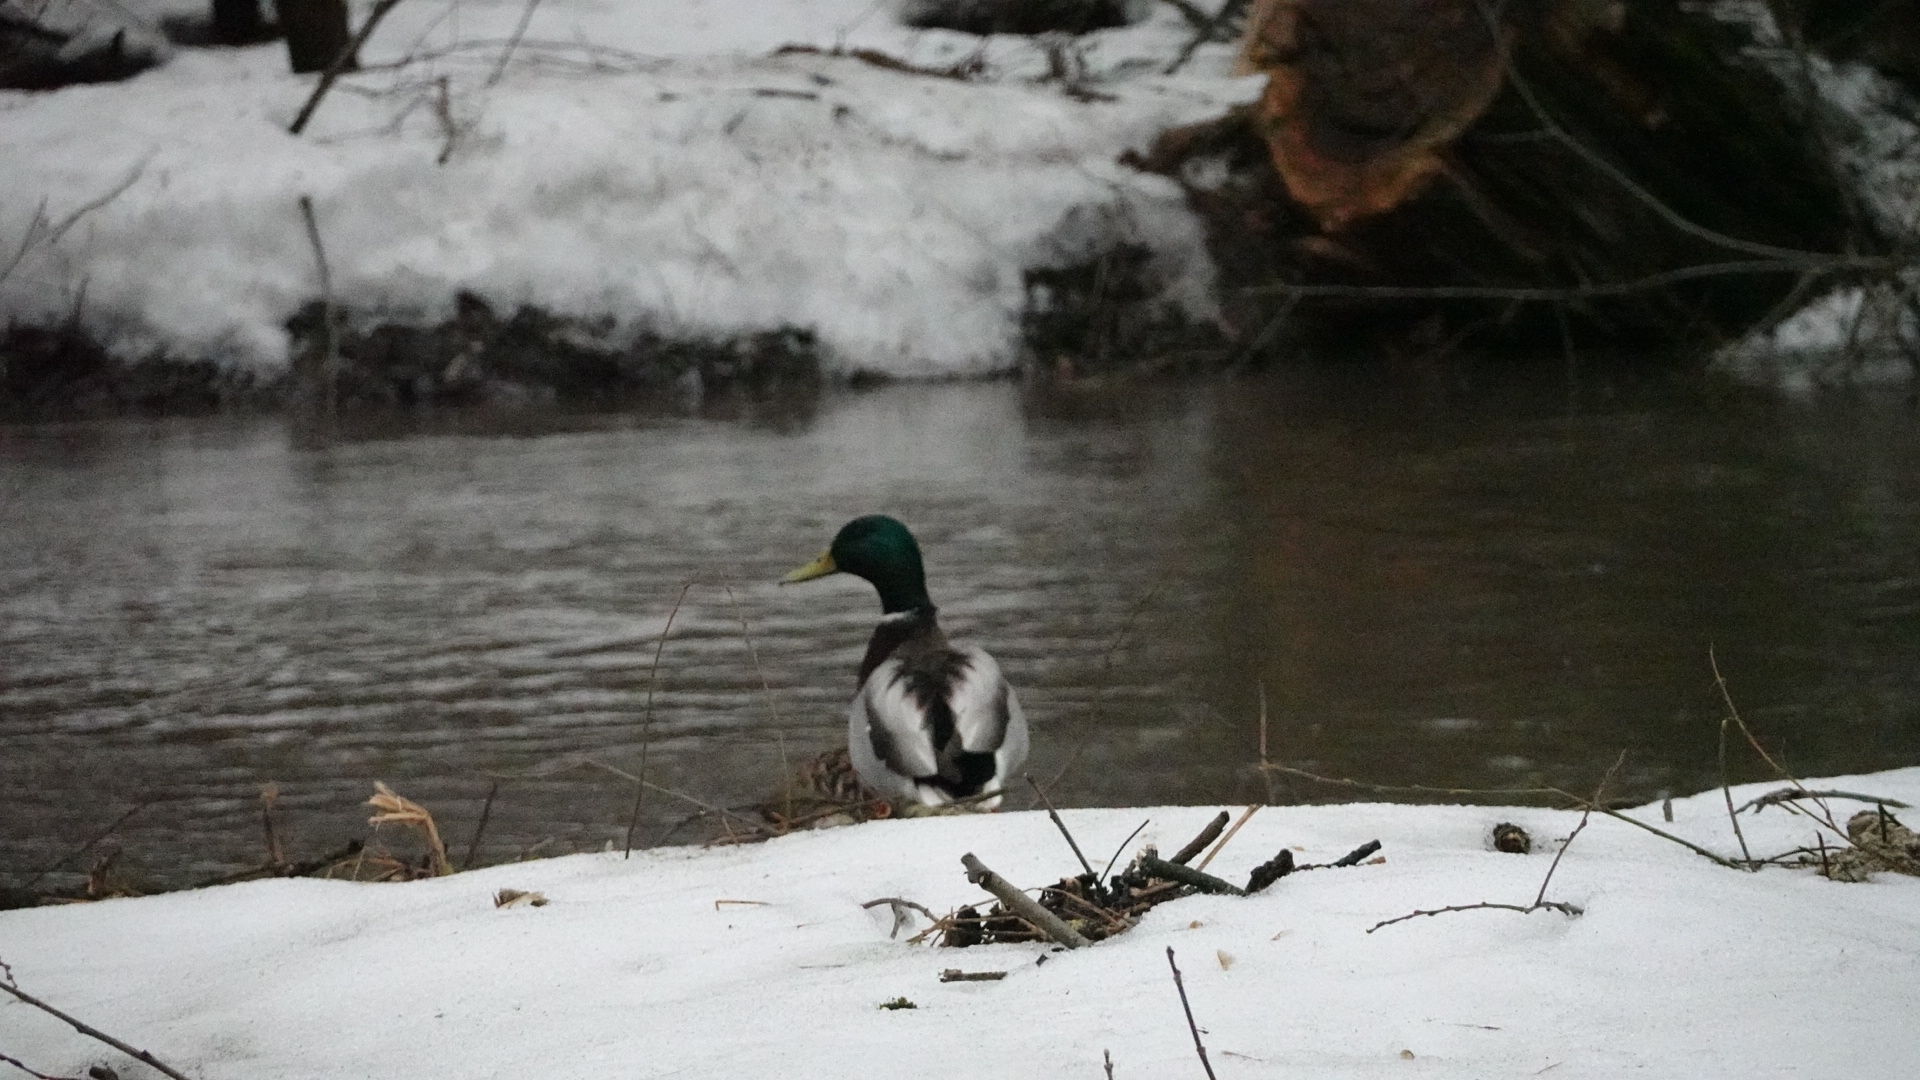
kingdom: Animalia
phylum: Chordata
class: Aves
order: Anseriformes
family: Anatidae
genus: Anas
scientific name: Anas platyrhynchos
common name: Mallard
